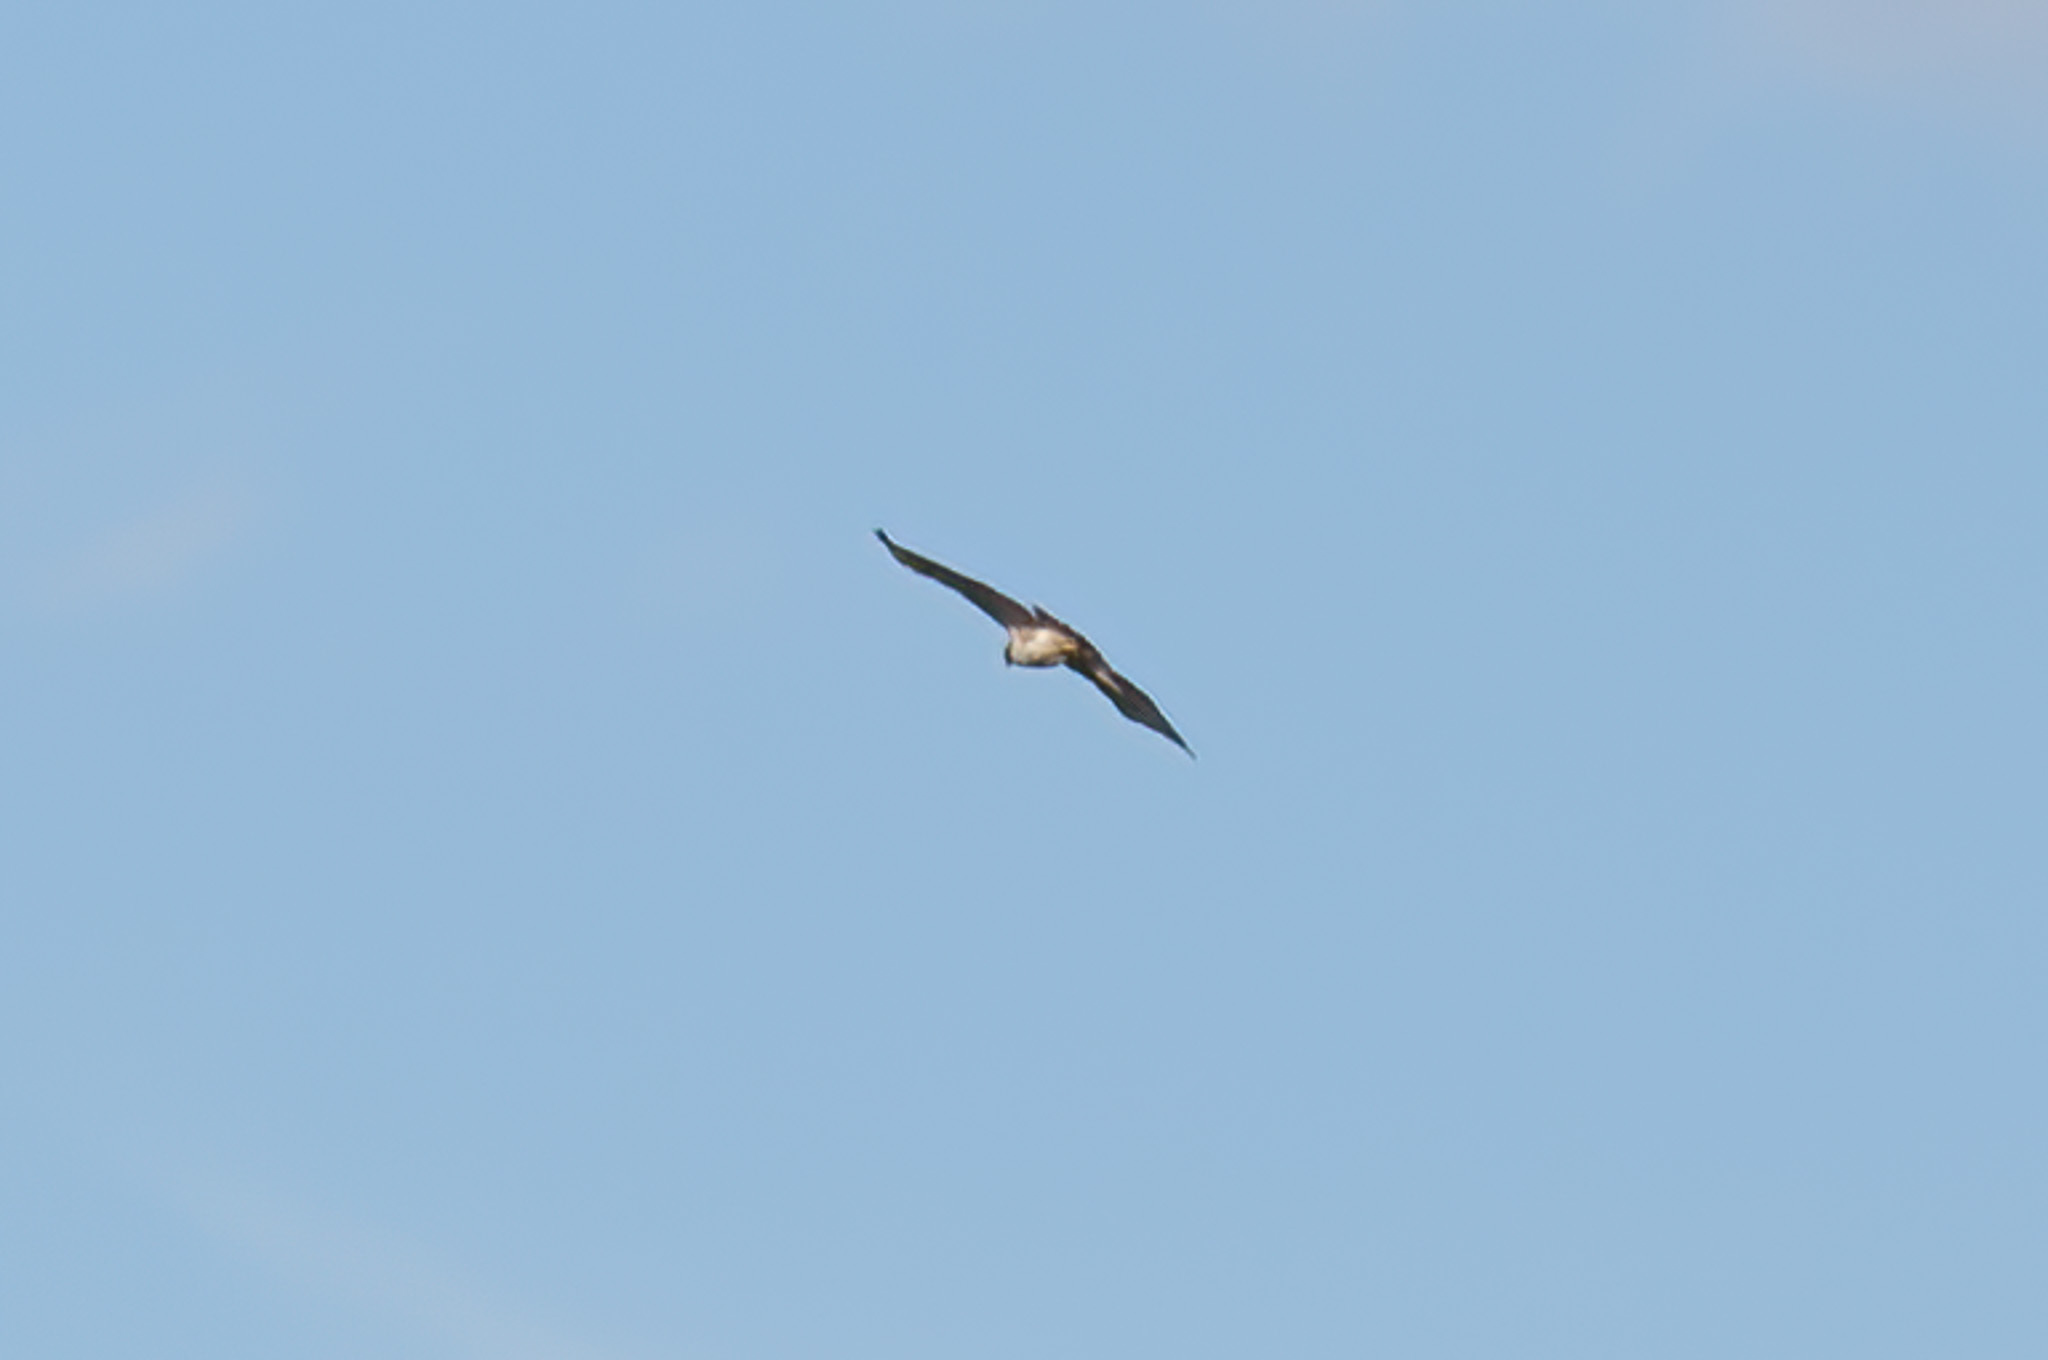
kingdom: Animalia
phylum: Chordata
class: Aves
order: Accipitriformes
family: Accipitridae
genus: Buteo
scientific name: Buteo jamaicensis
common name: Red-tailed hawk
